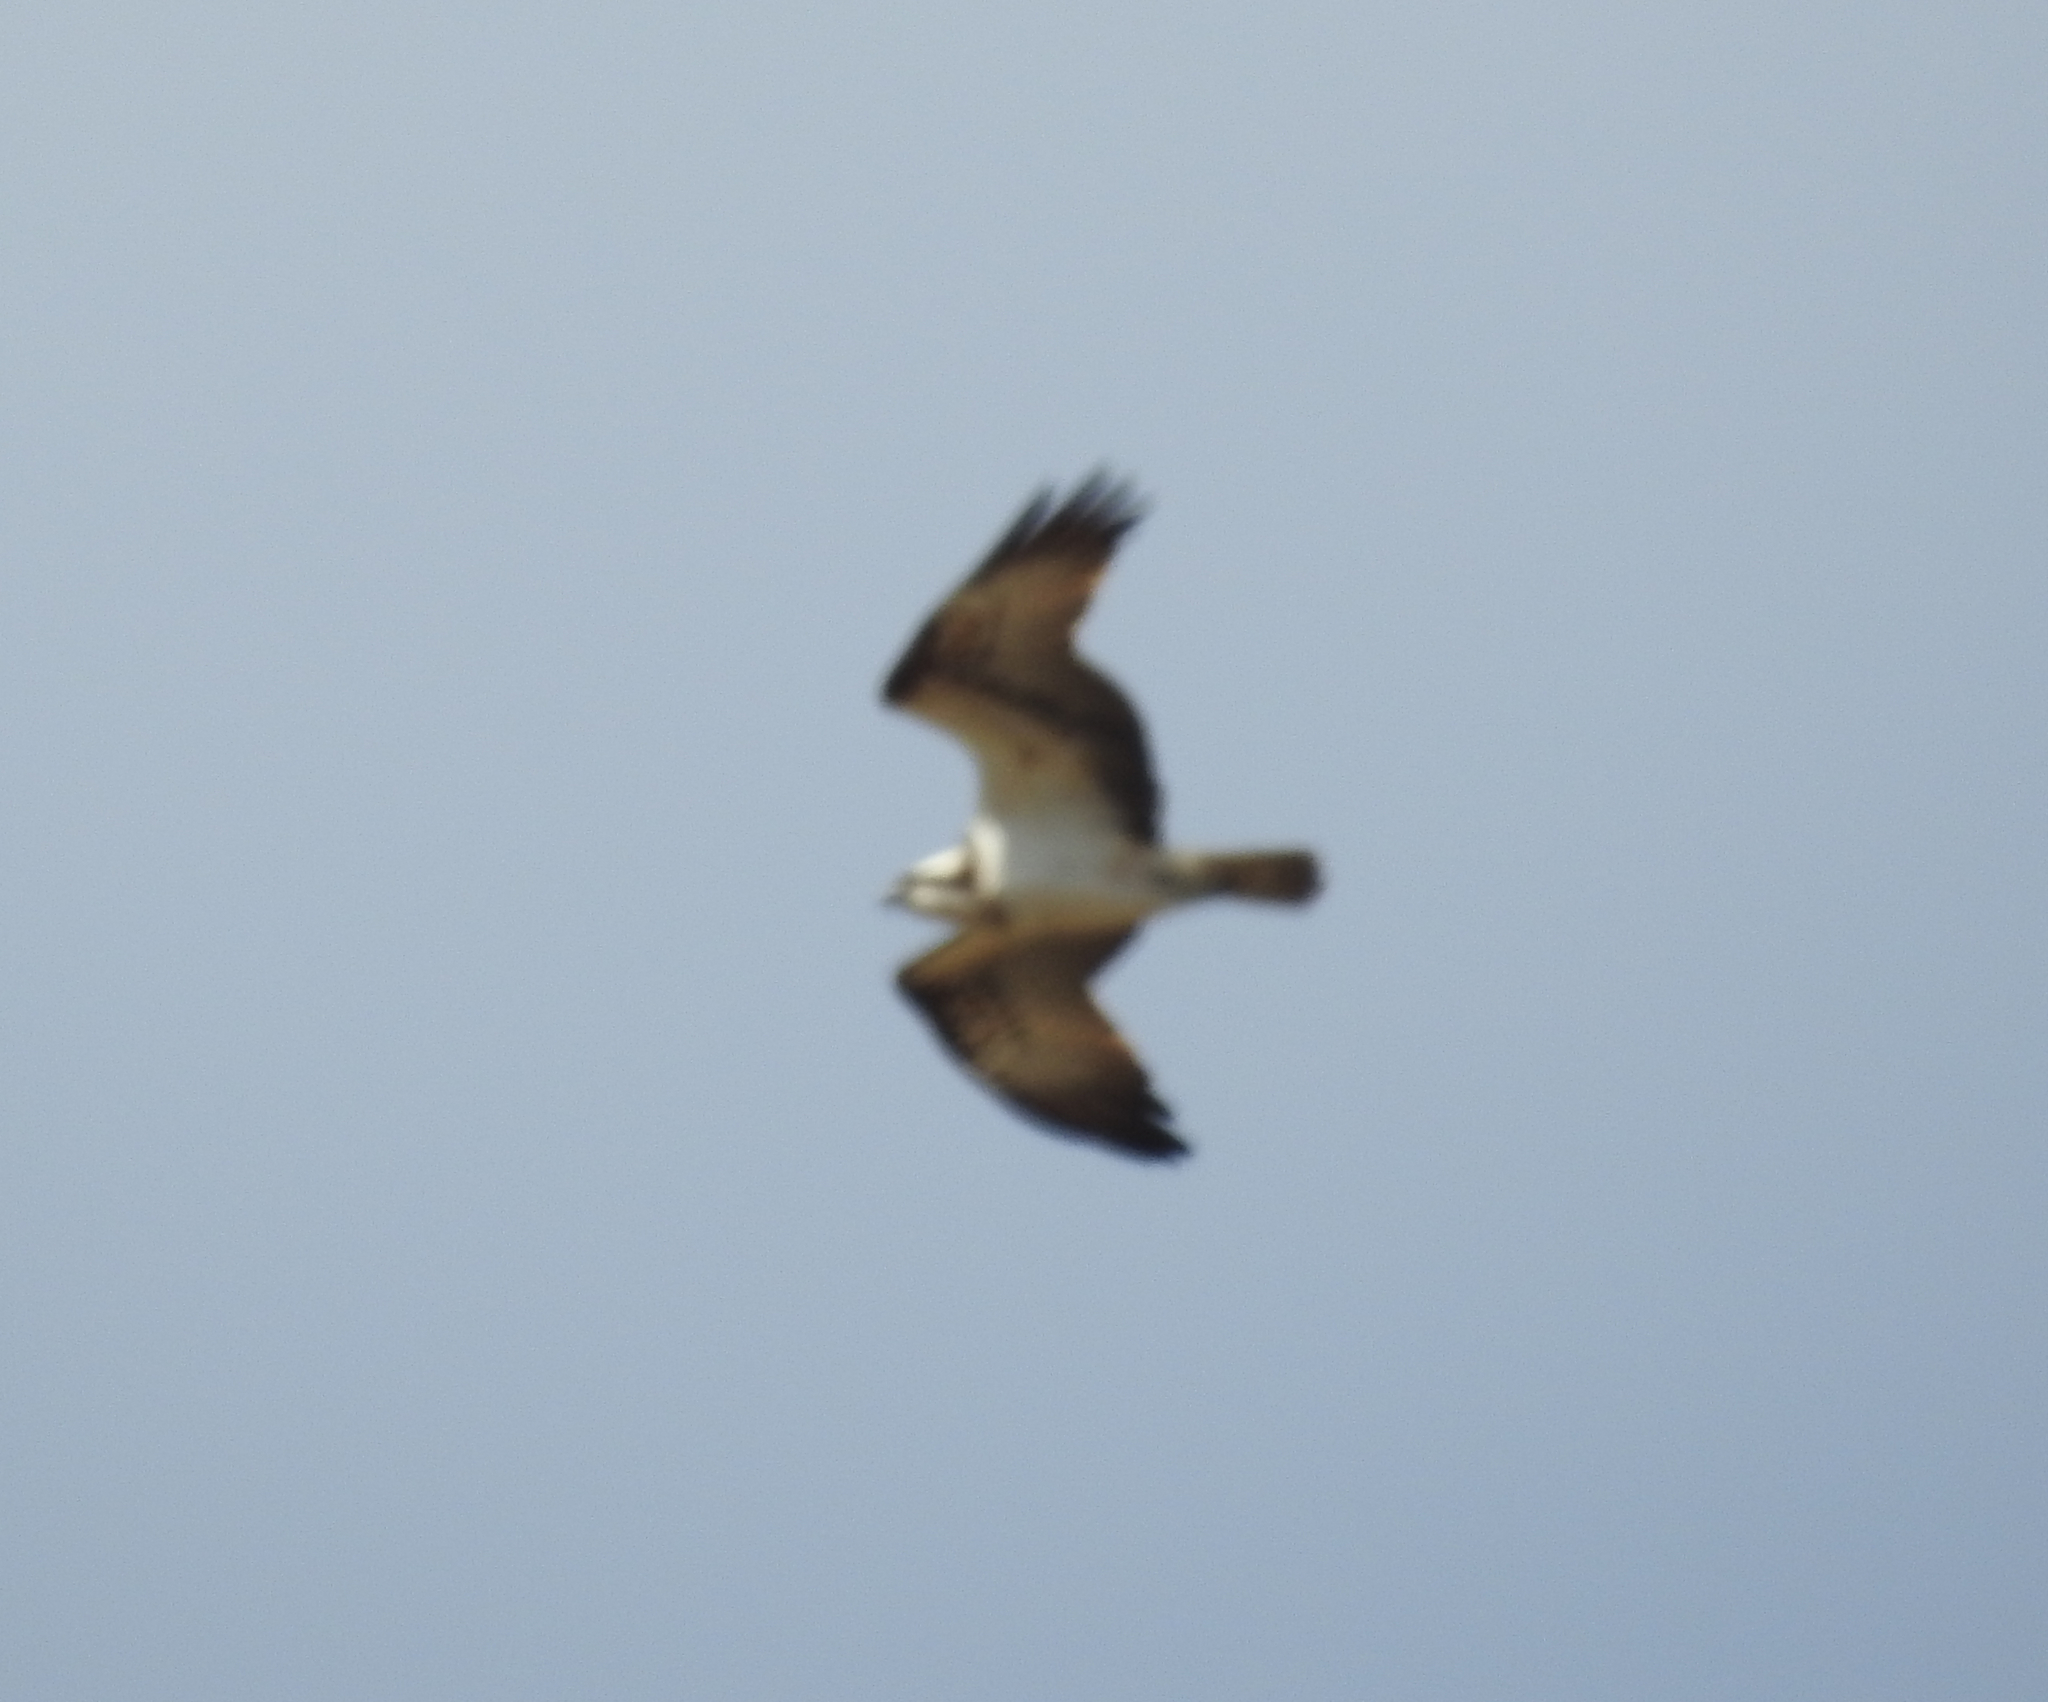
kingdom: Animalia
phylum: Chordata
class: Aves
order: Accipitriformes
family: Pandionidae
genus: Pandion
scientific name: Pandion haliaetus
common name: Osprey
